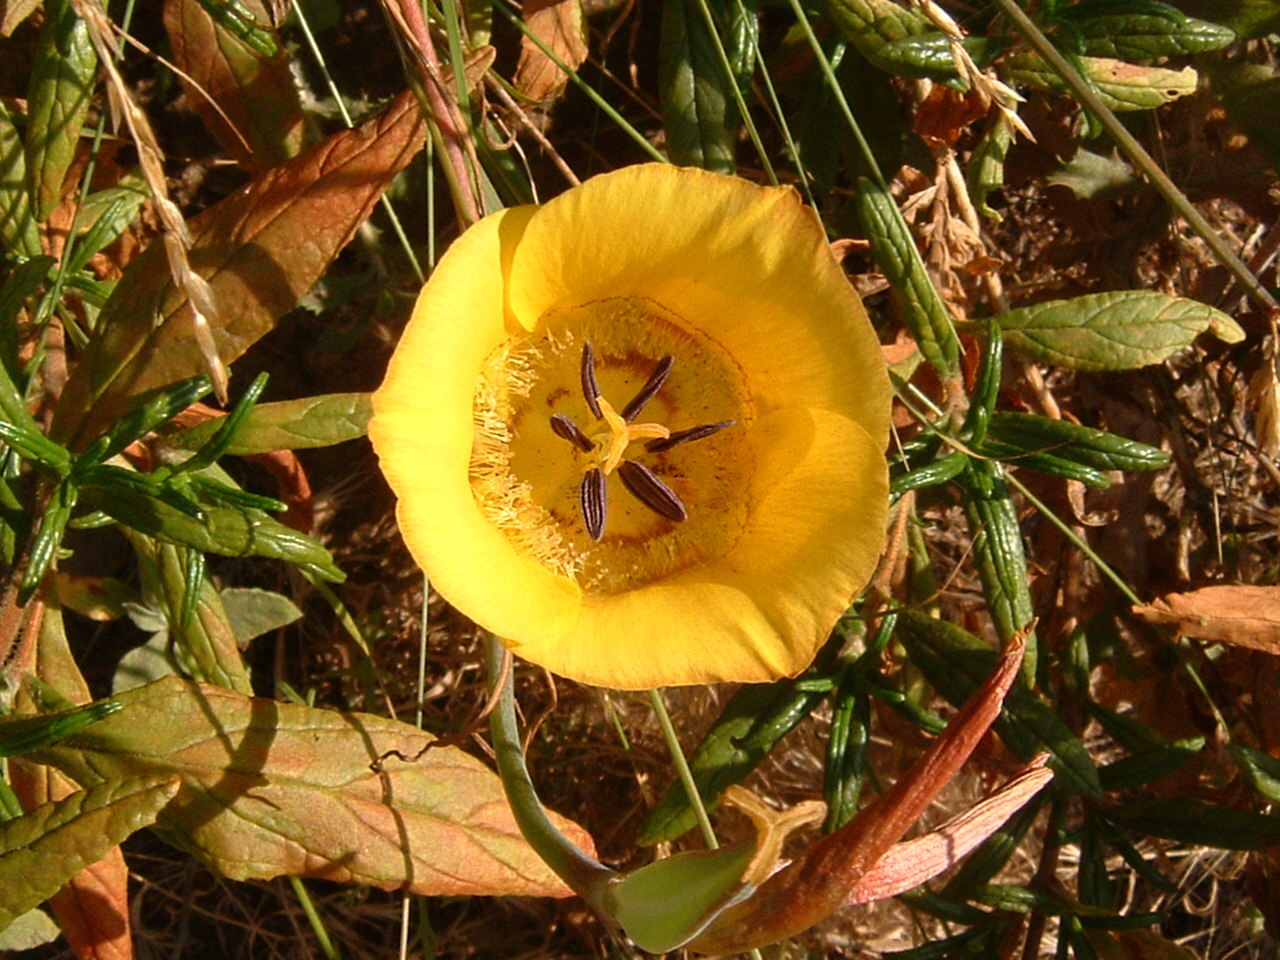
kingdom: Plantae
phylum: Tracheophyta
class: Liliopsida
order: Liliales
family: Liliaceae
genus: Calochortus
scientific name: Calochortus clavatus
